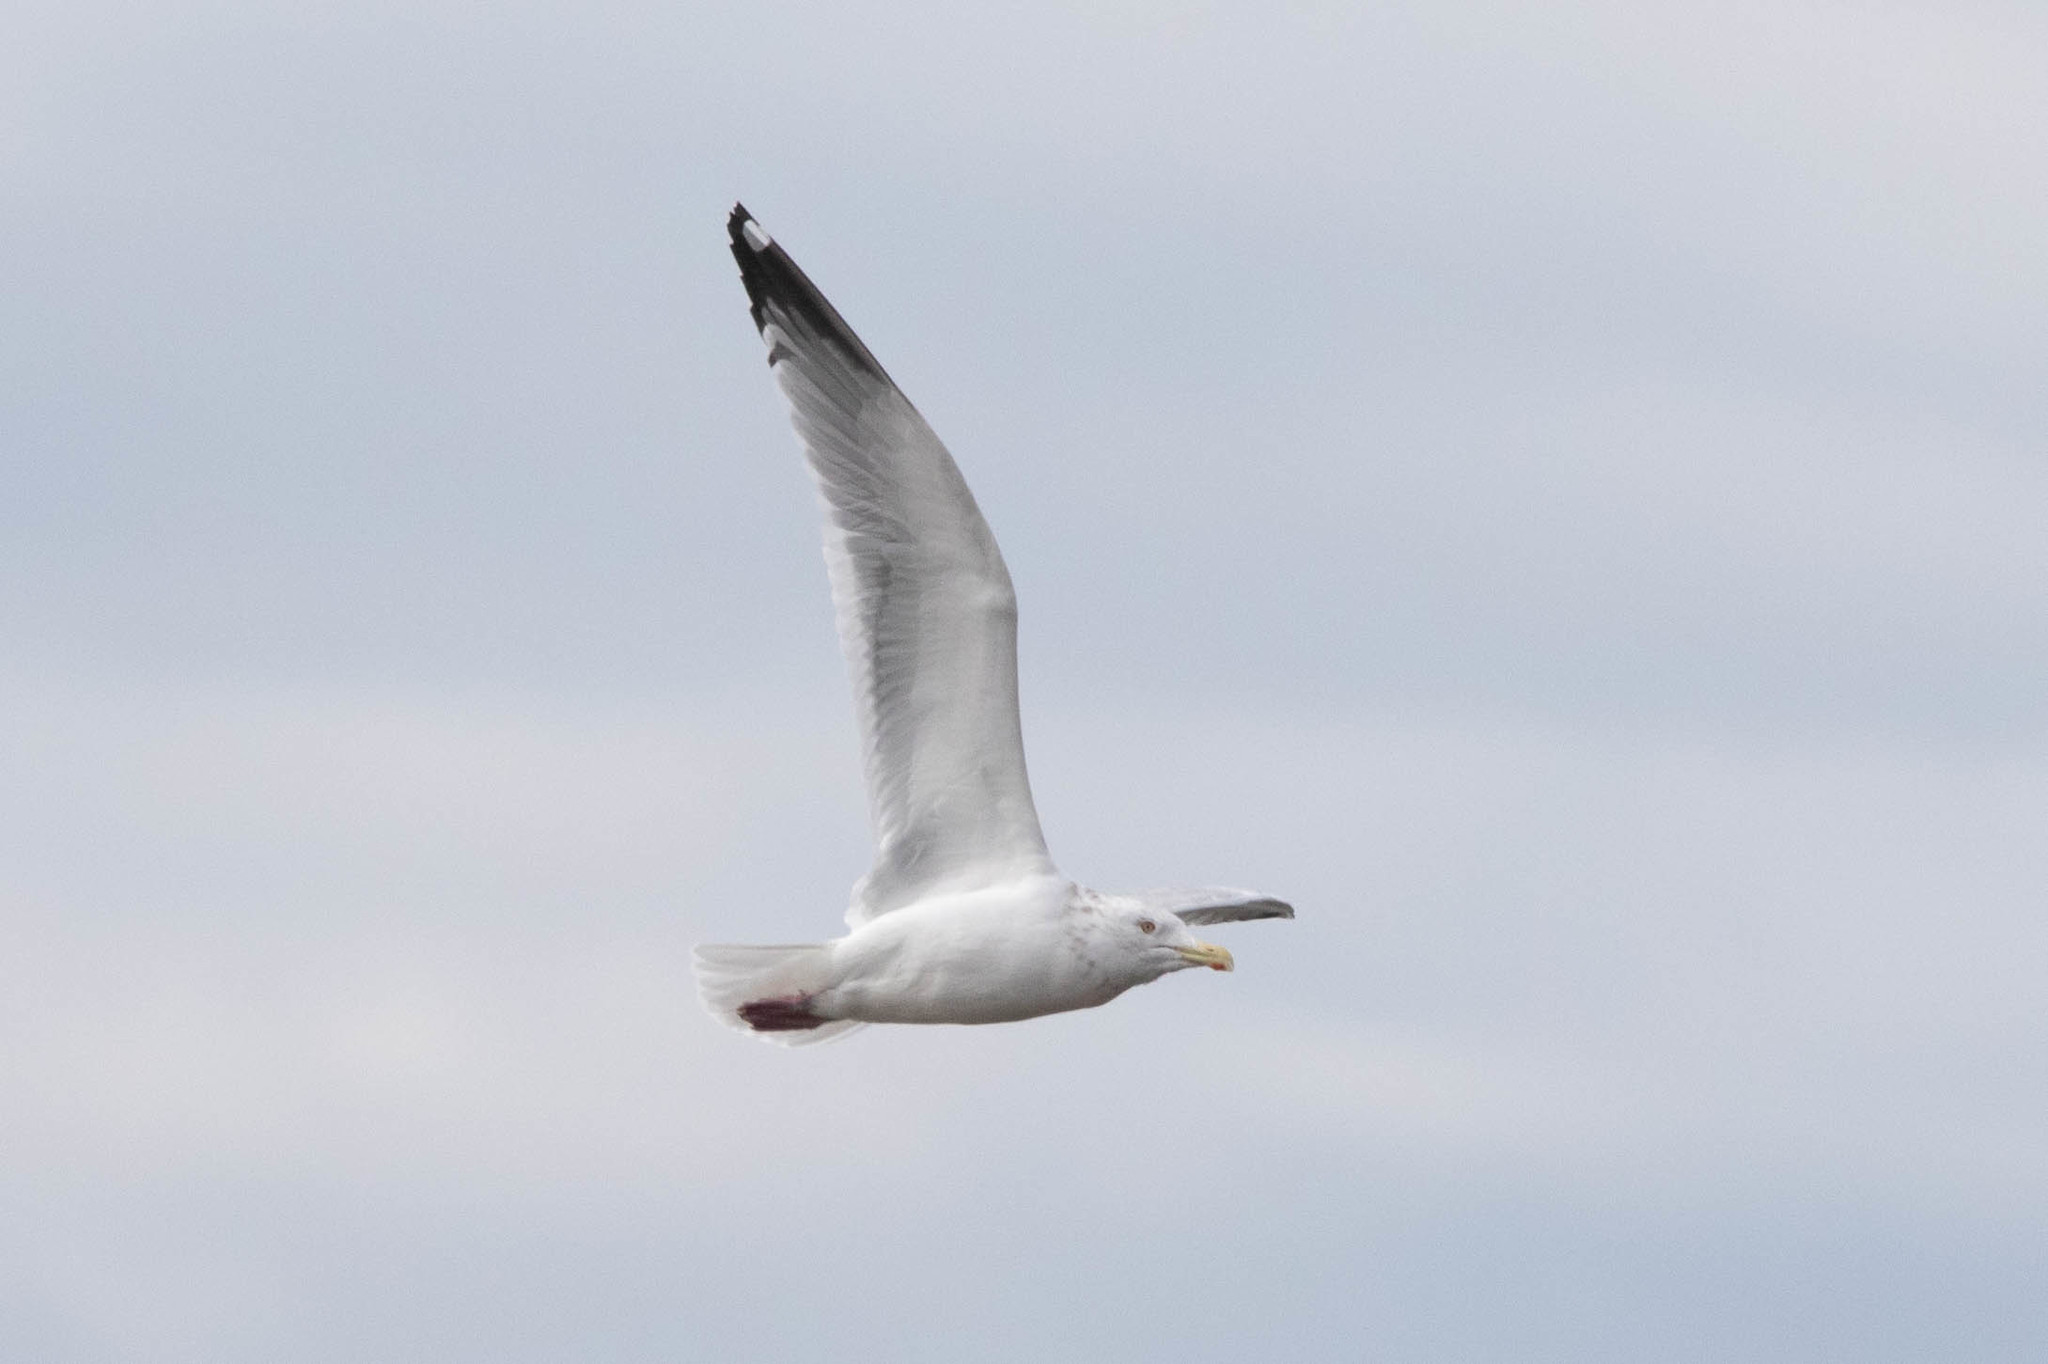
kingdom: Animalia
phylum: Chordata
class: Aves
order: Charadriiformes
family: Laridae
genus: Larus
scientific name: Larus argentatus
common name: Herring gull
